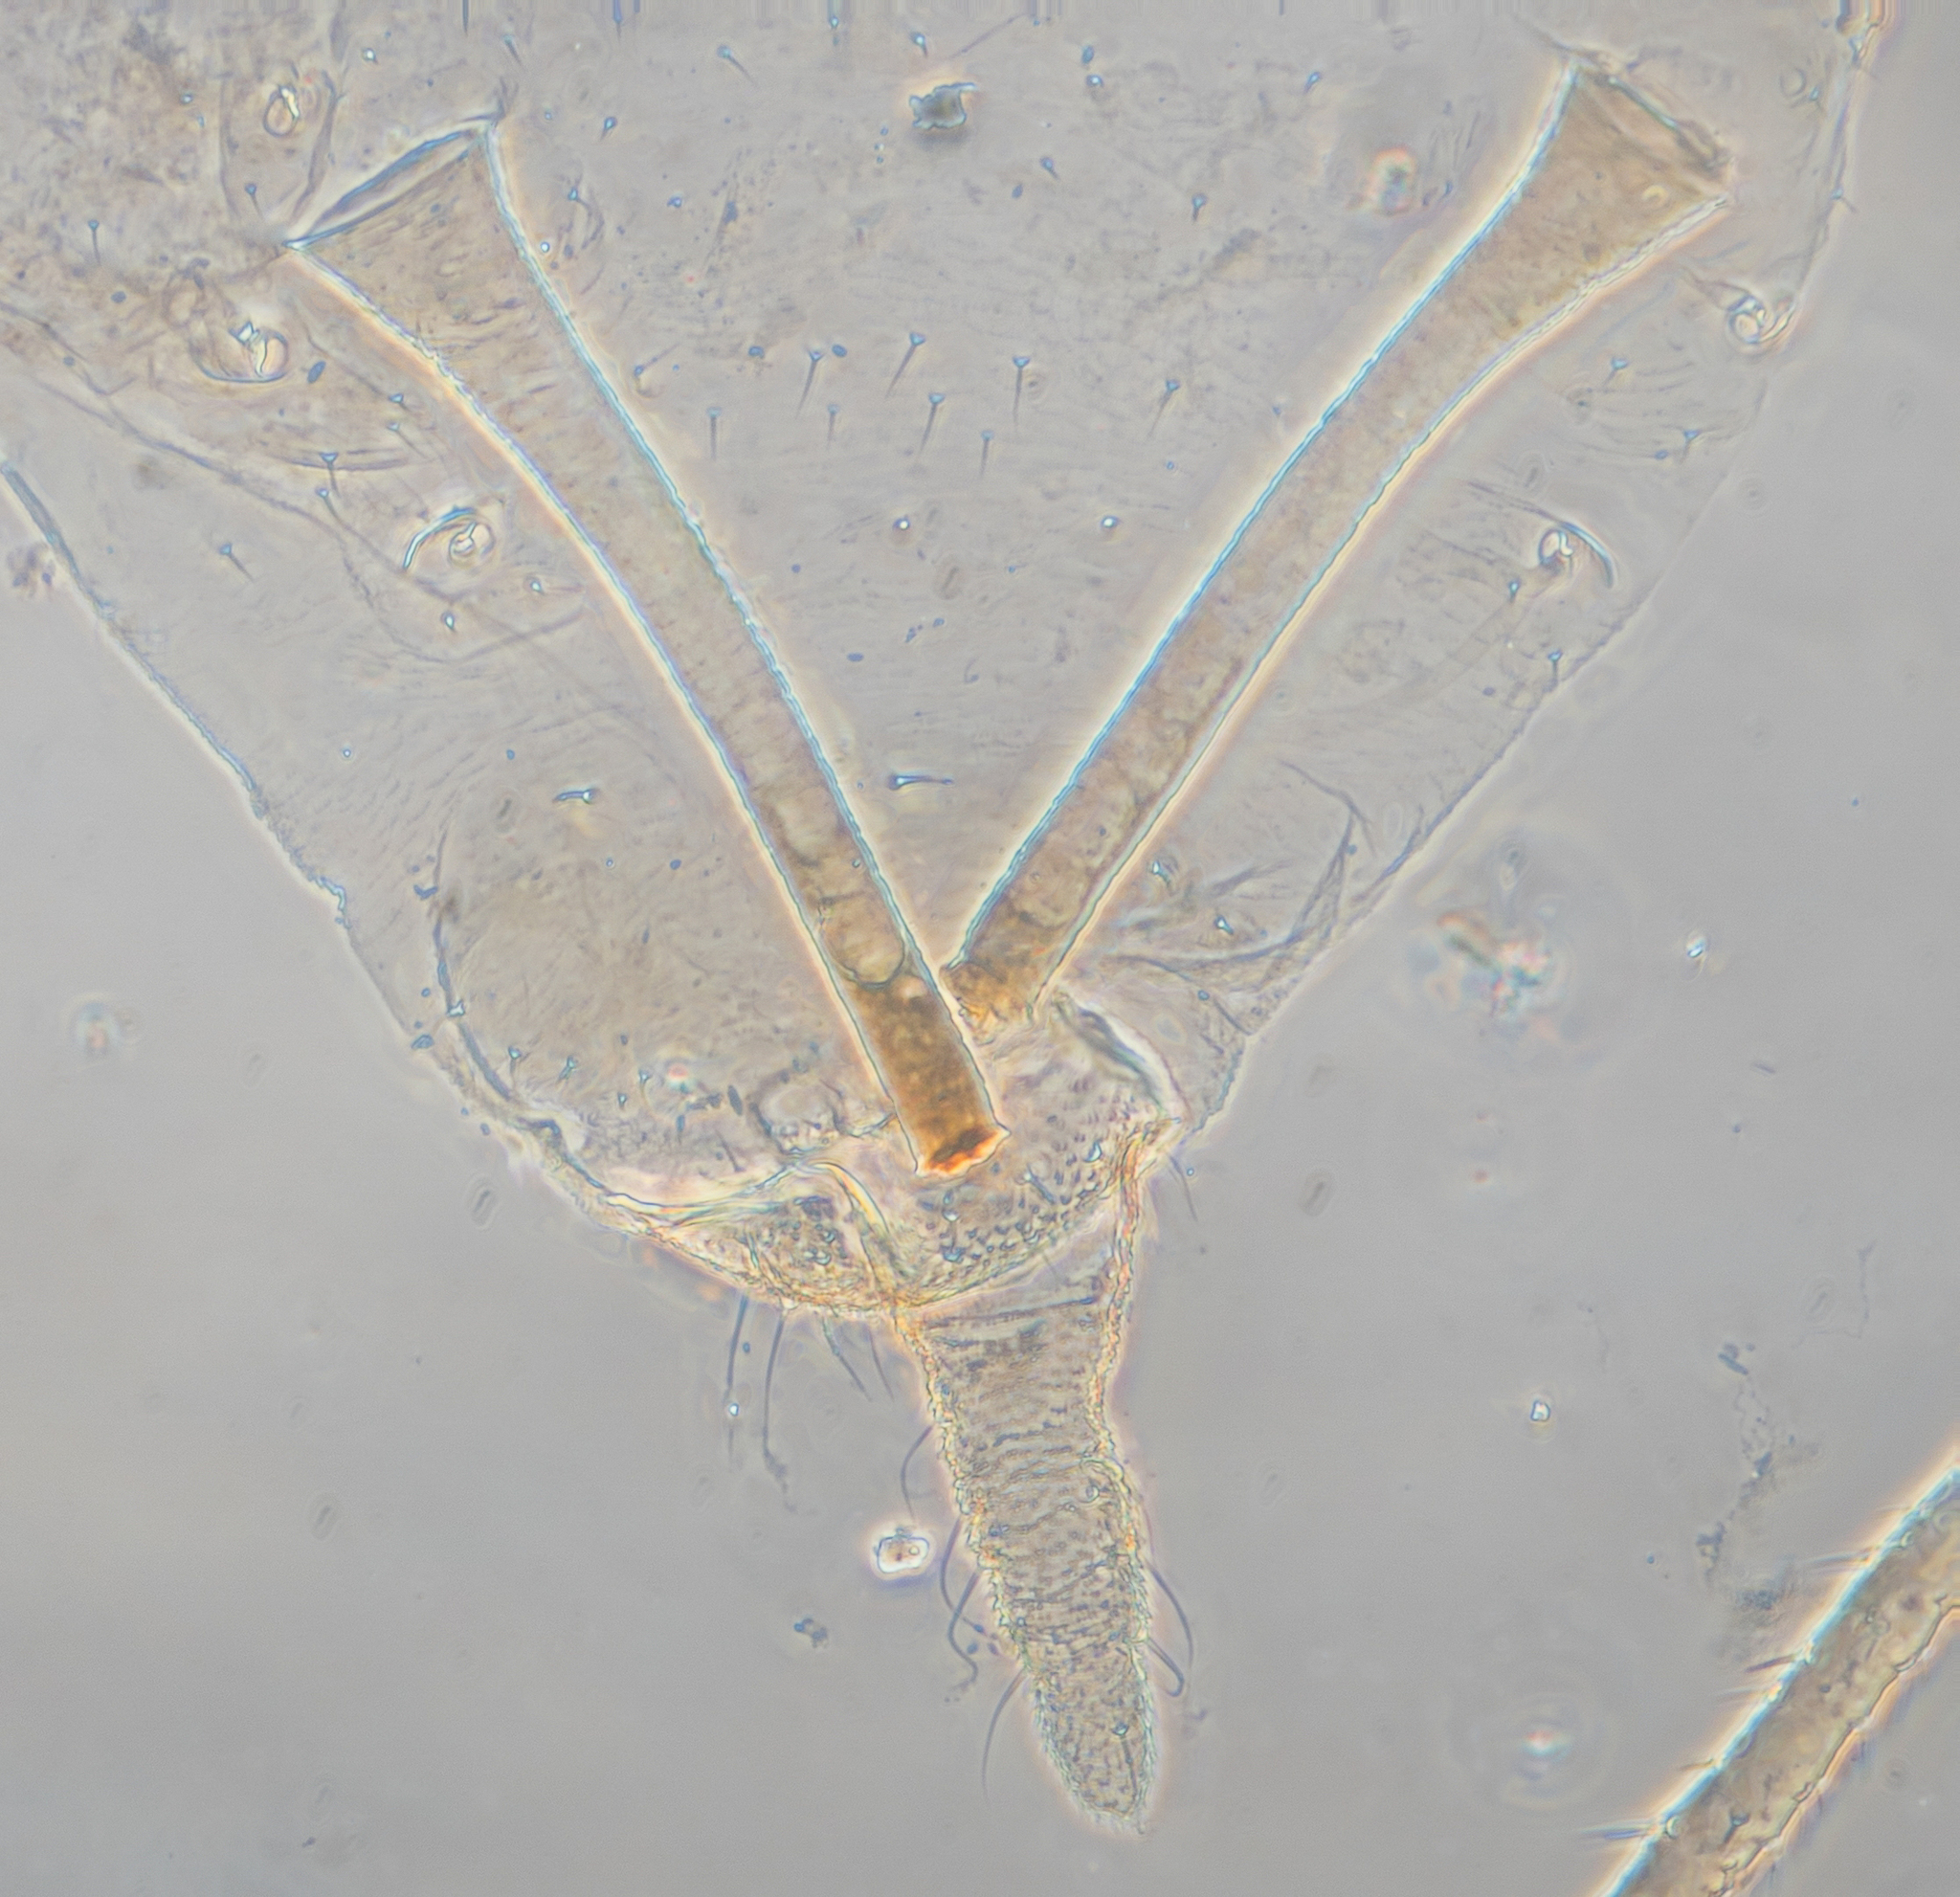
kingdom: Animalia
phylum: Arthropoda
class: Insecta
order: Hemiptera
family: Aphididae
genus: Acyrthosiphon
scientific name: Acyrthosiphon lactucae
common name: Aphid
